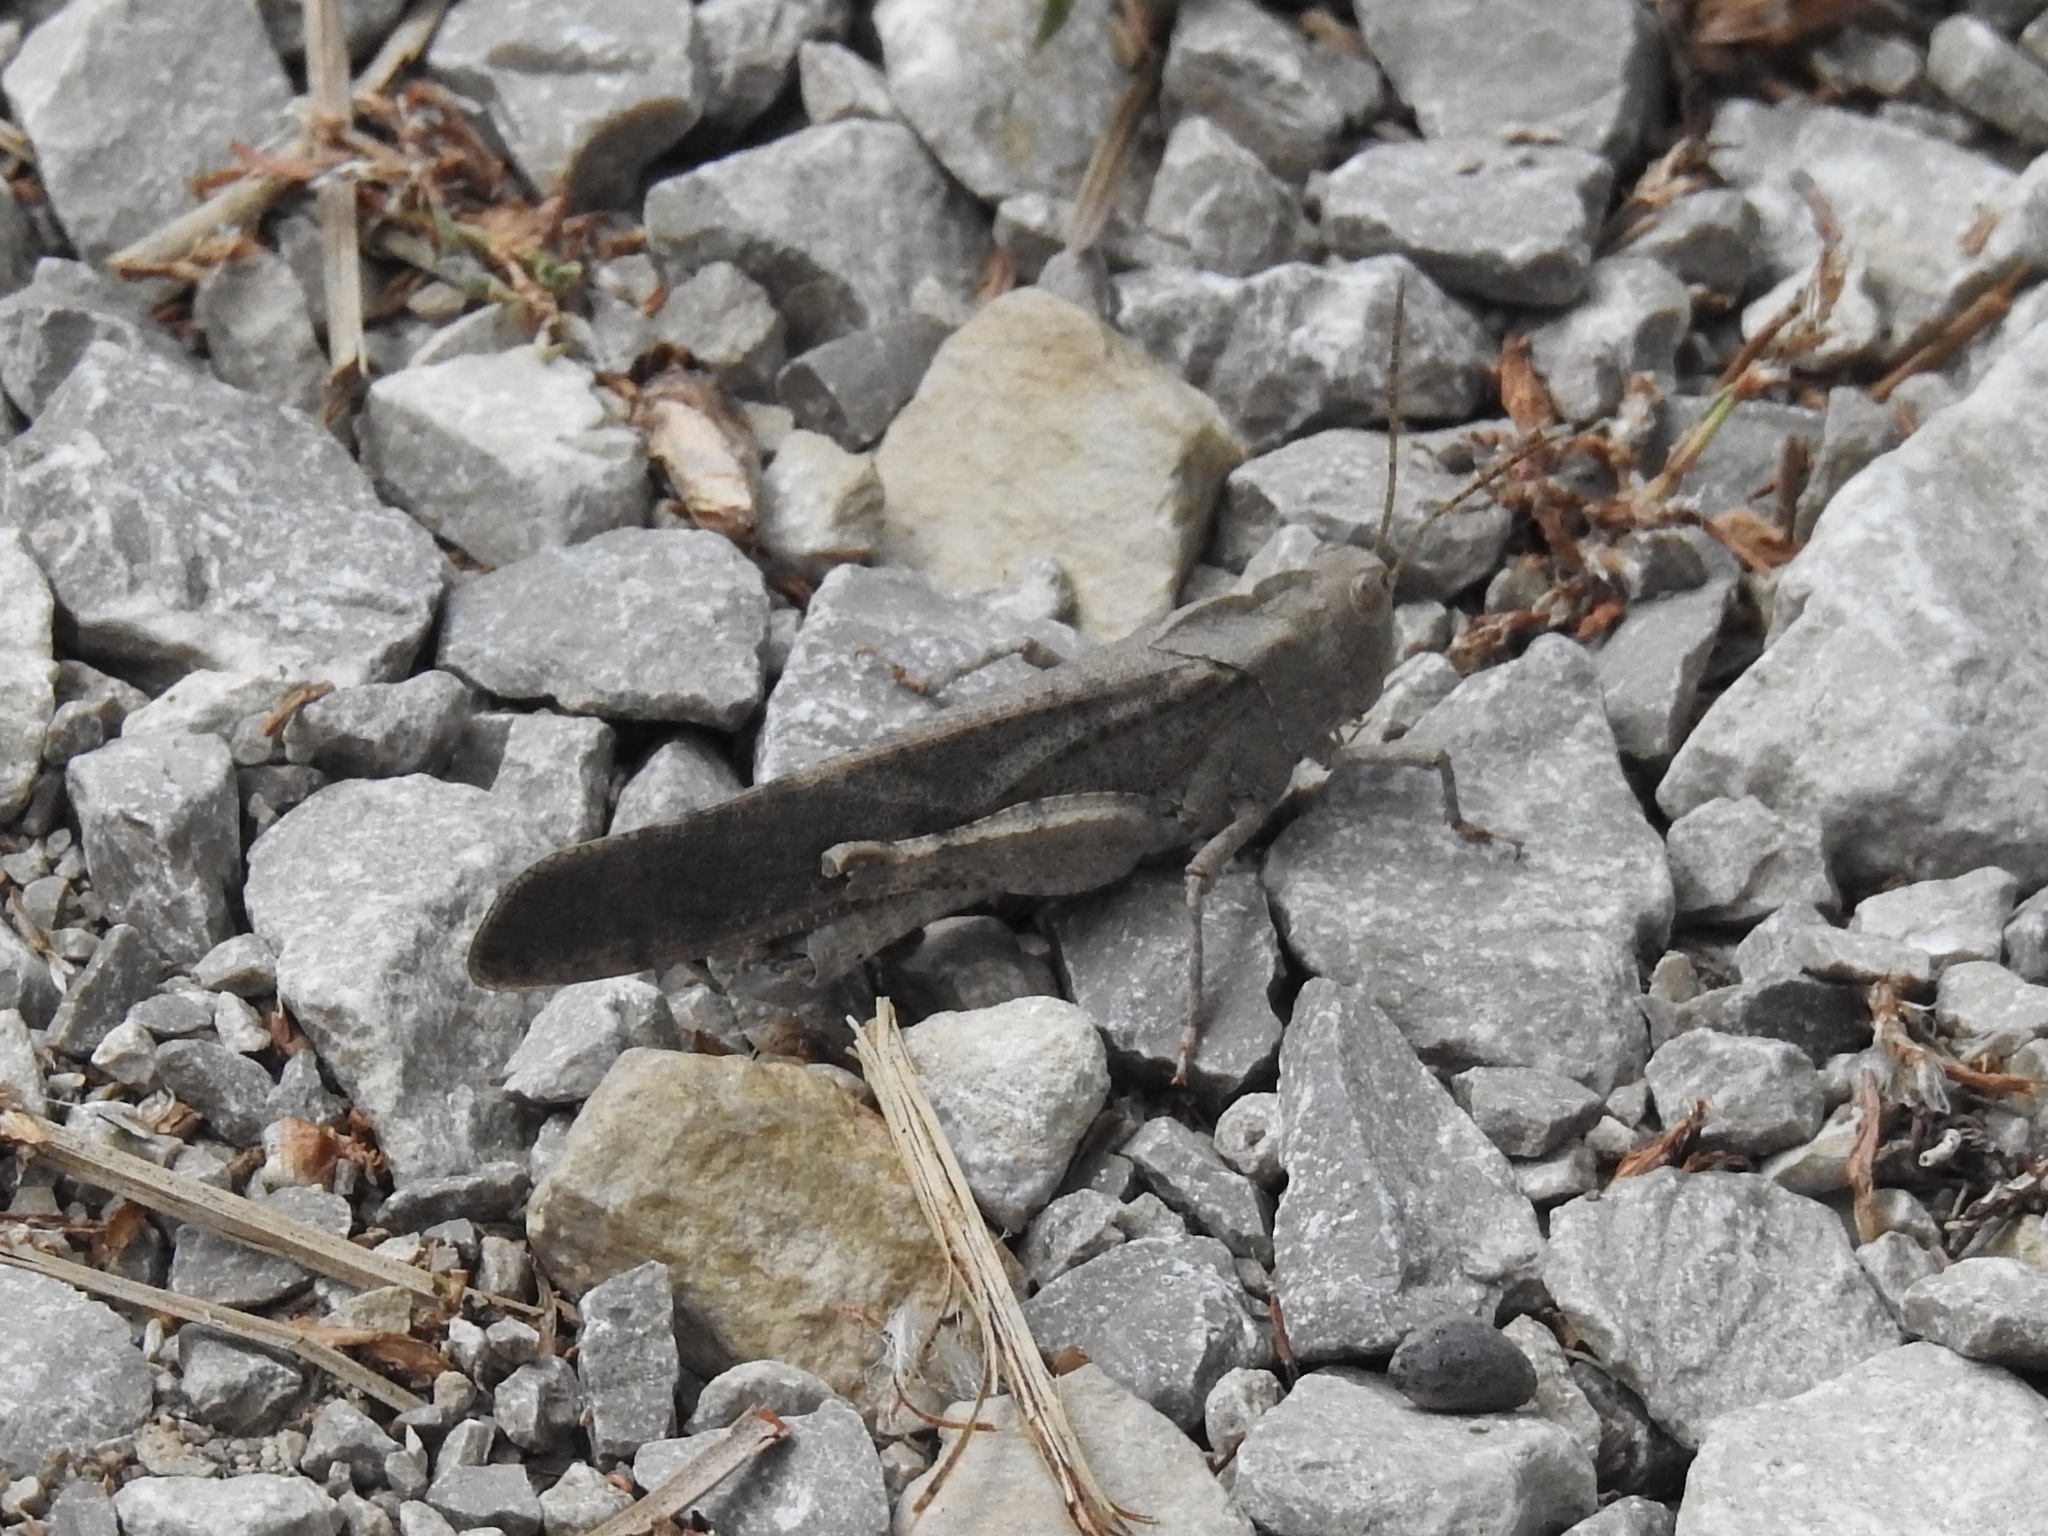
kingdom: Animalia
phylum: Arthropoda
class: Insecta
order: Orthoptera
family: Acrididae
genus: Dissosteira
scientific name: Dissosteira carolina
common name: Carolina grasshopper
